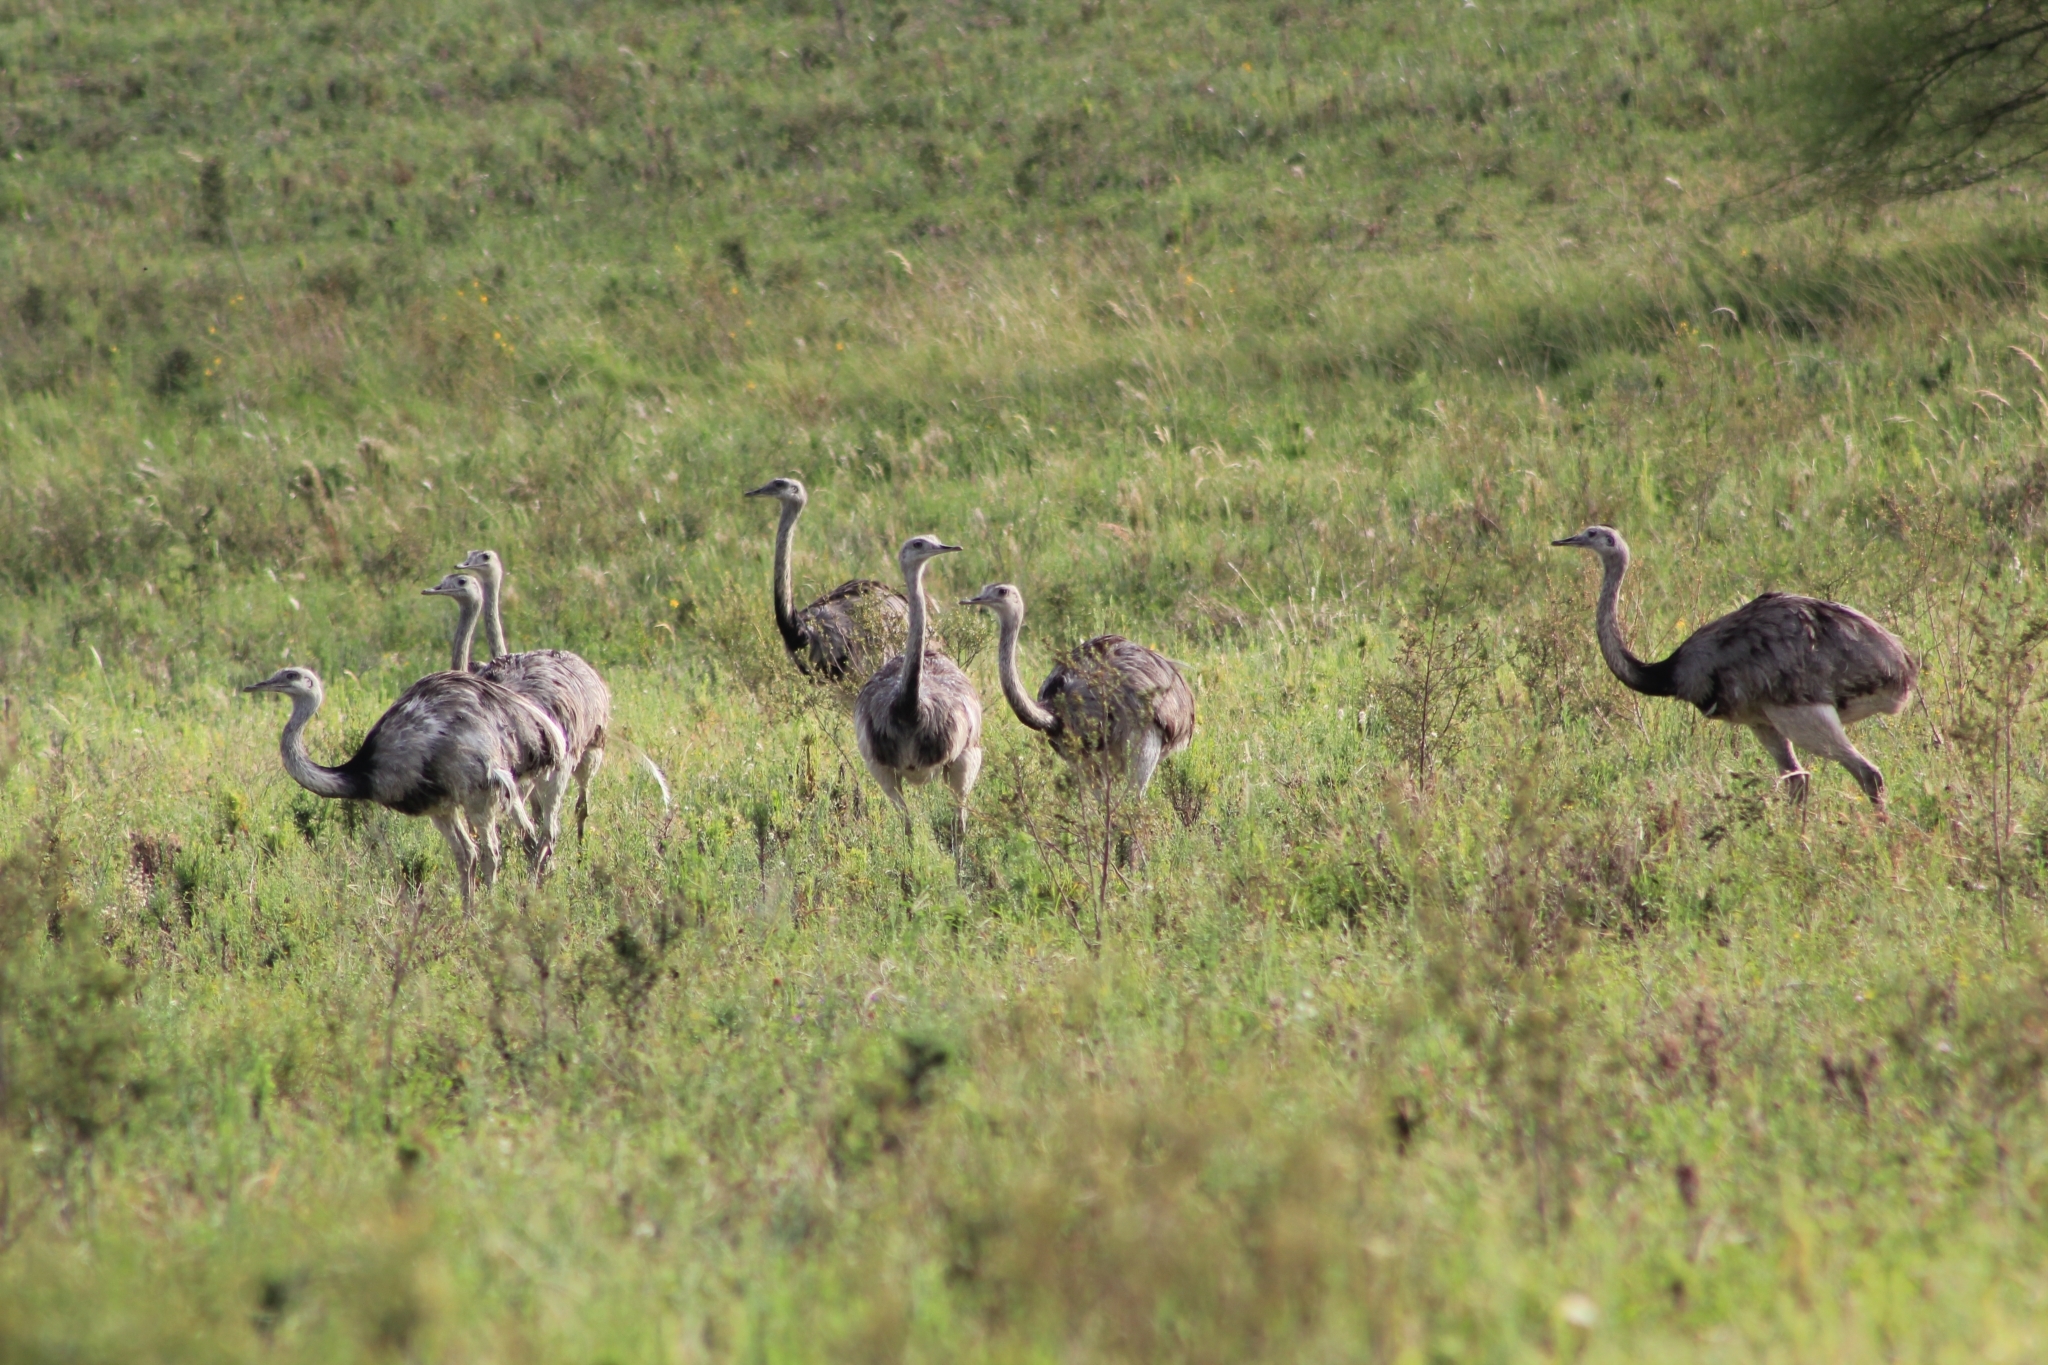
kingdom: Animalia
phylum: Chordata
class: Aves
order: Rheiformes
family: Rheidae
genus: Rhea
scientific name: Rhea americana
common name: Greater rhea
